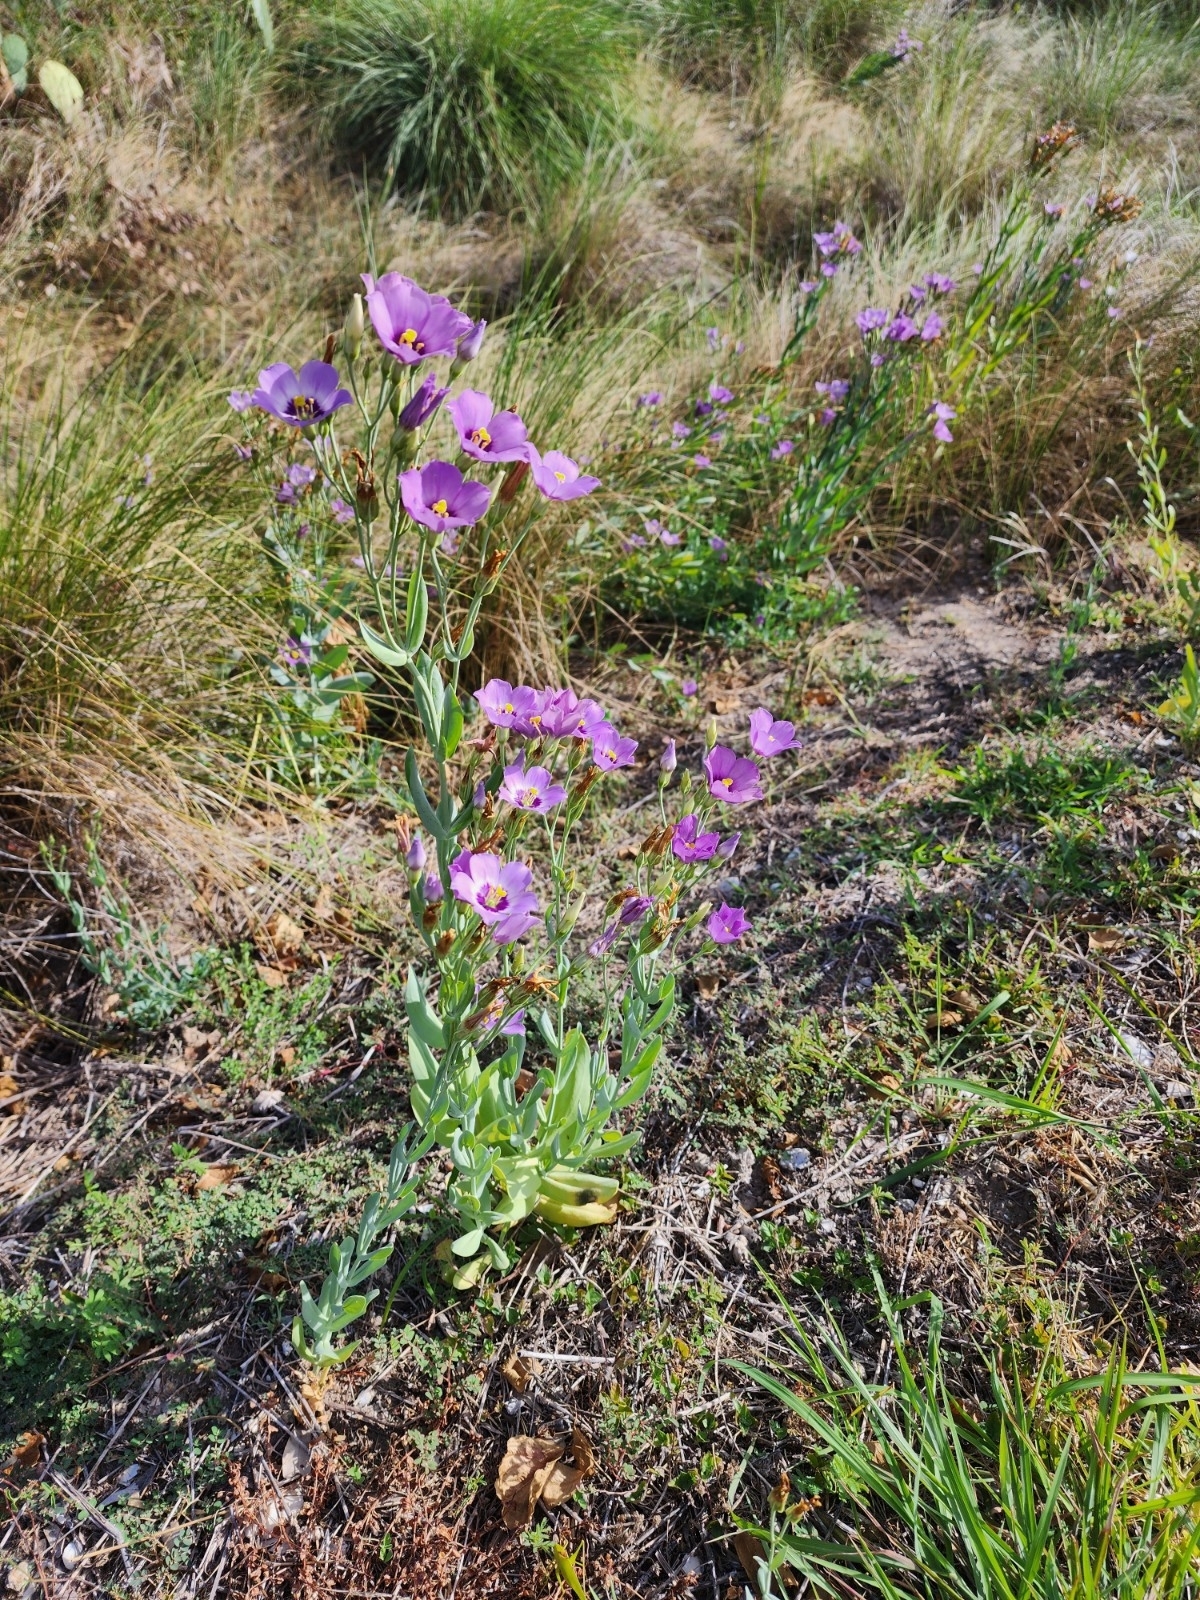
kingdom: Plantae
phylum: Tracheophyta
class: Magnoliopsida
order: Gentianales
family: Gentianaceae
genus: Eustoma
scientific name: Eustoma exaltatum
